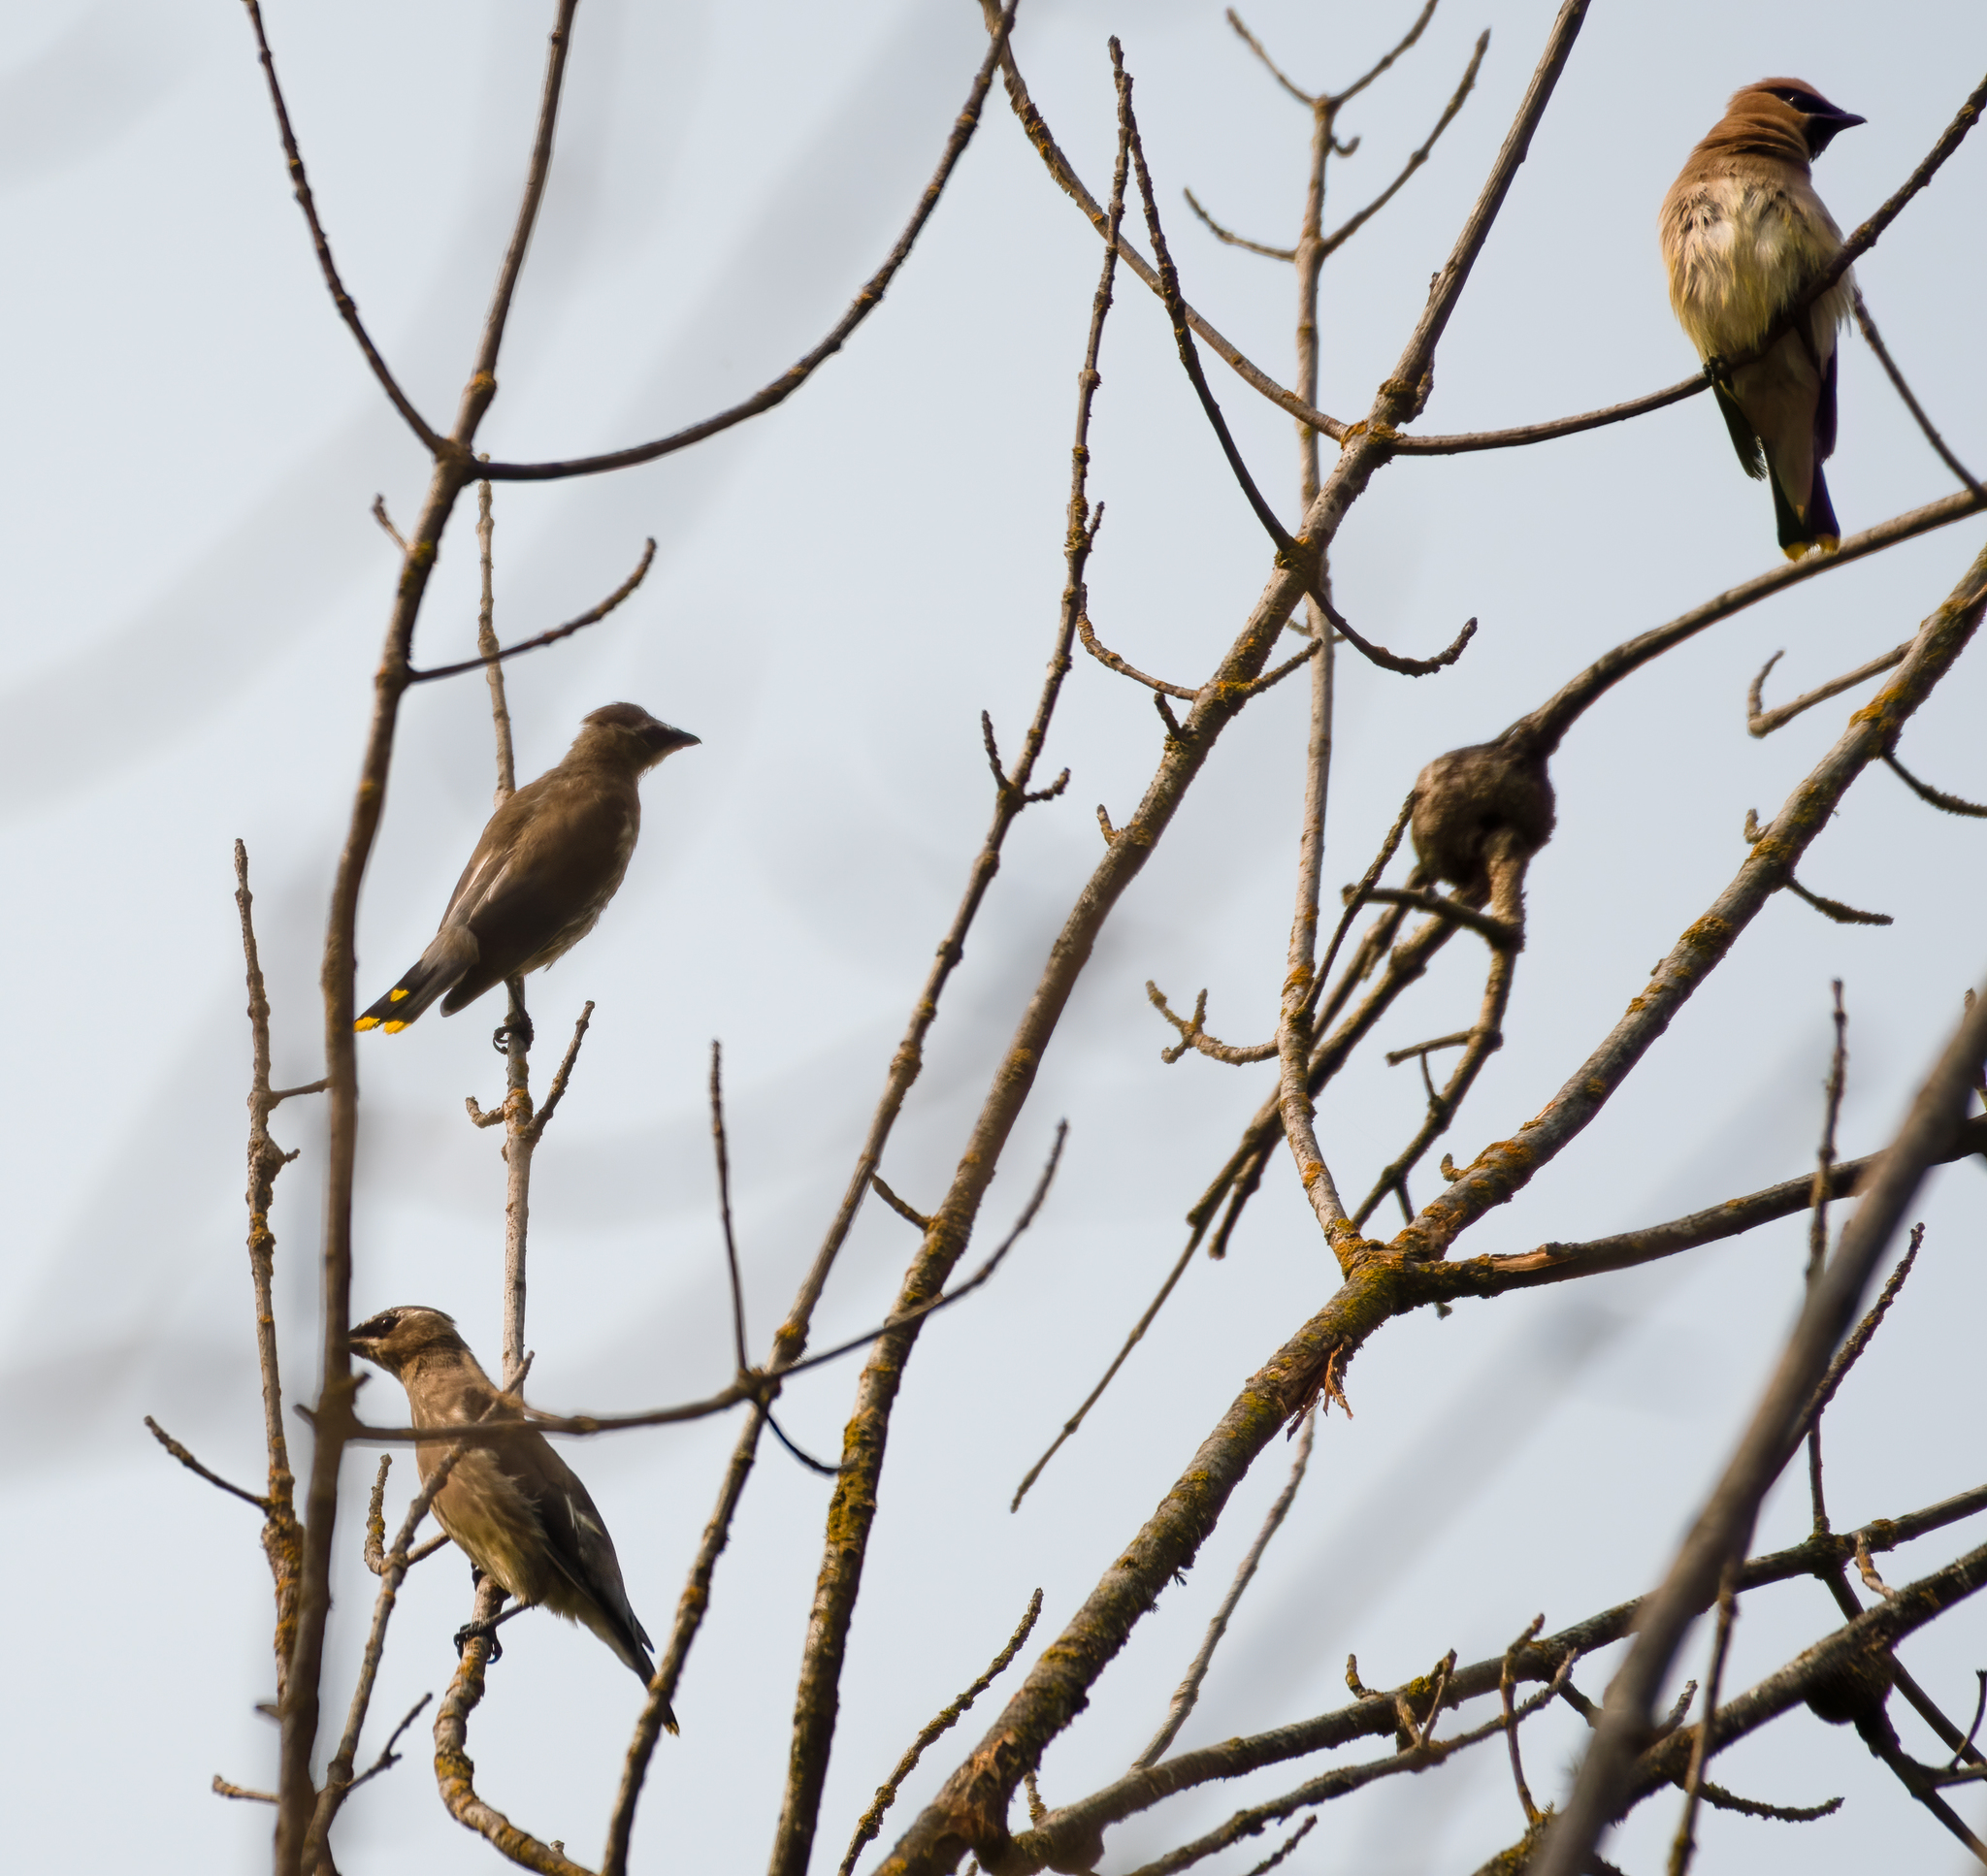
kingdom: Animalia
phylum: Chordata
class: Aves
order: Passeriformes
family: Bombycillidae
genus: Bombycilla
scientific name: Bombycilla cedrorum
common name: Cedar waxwing
